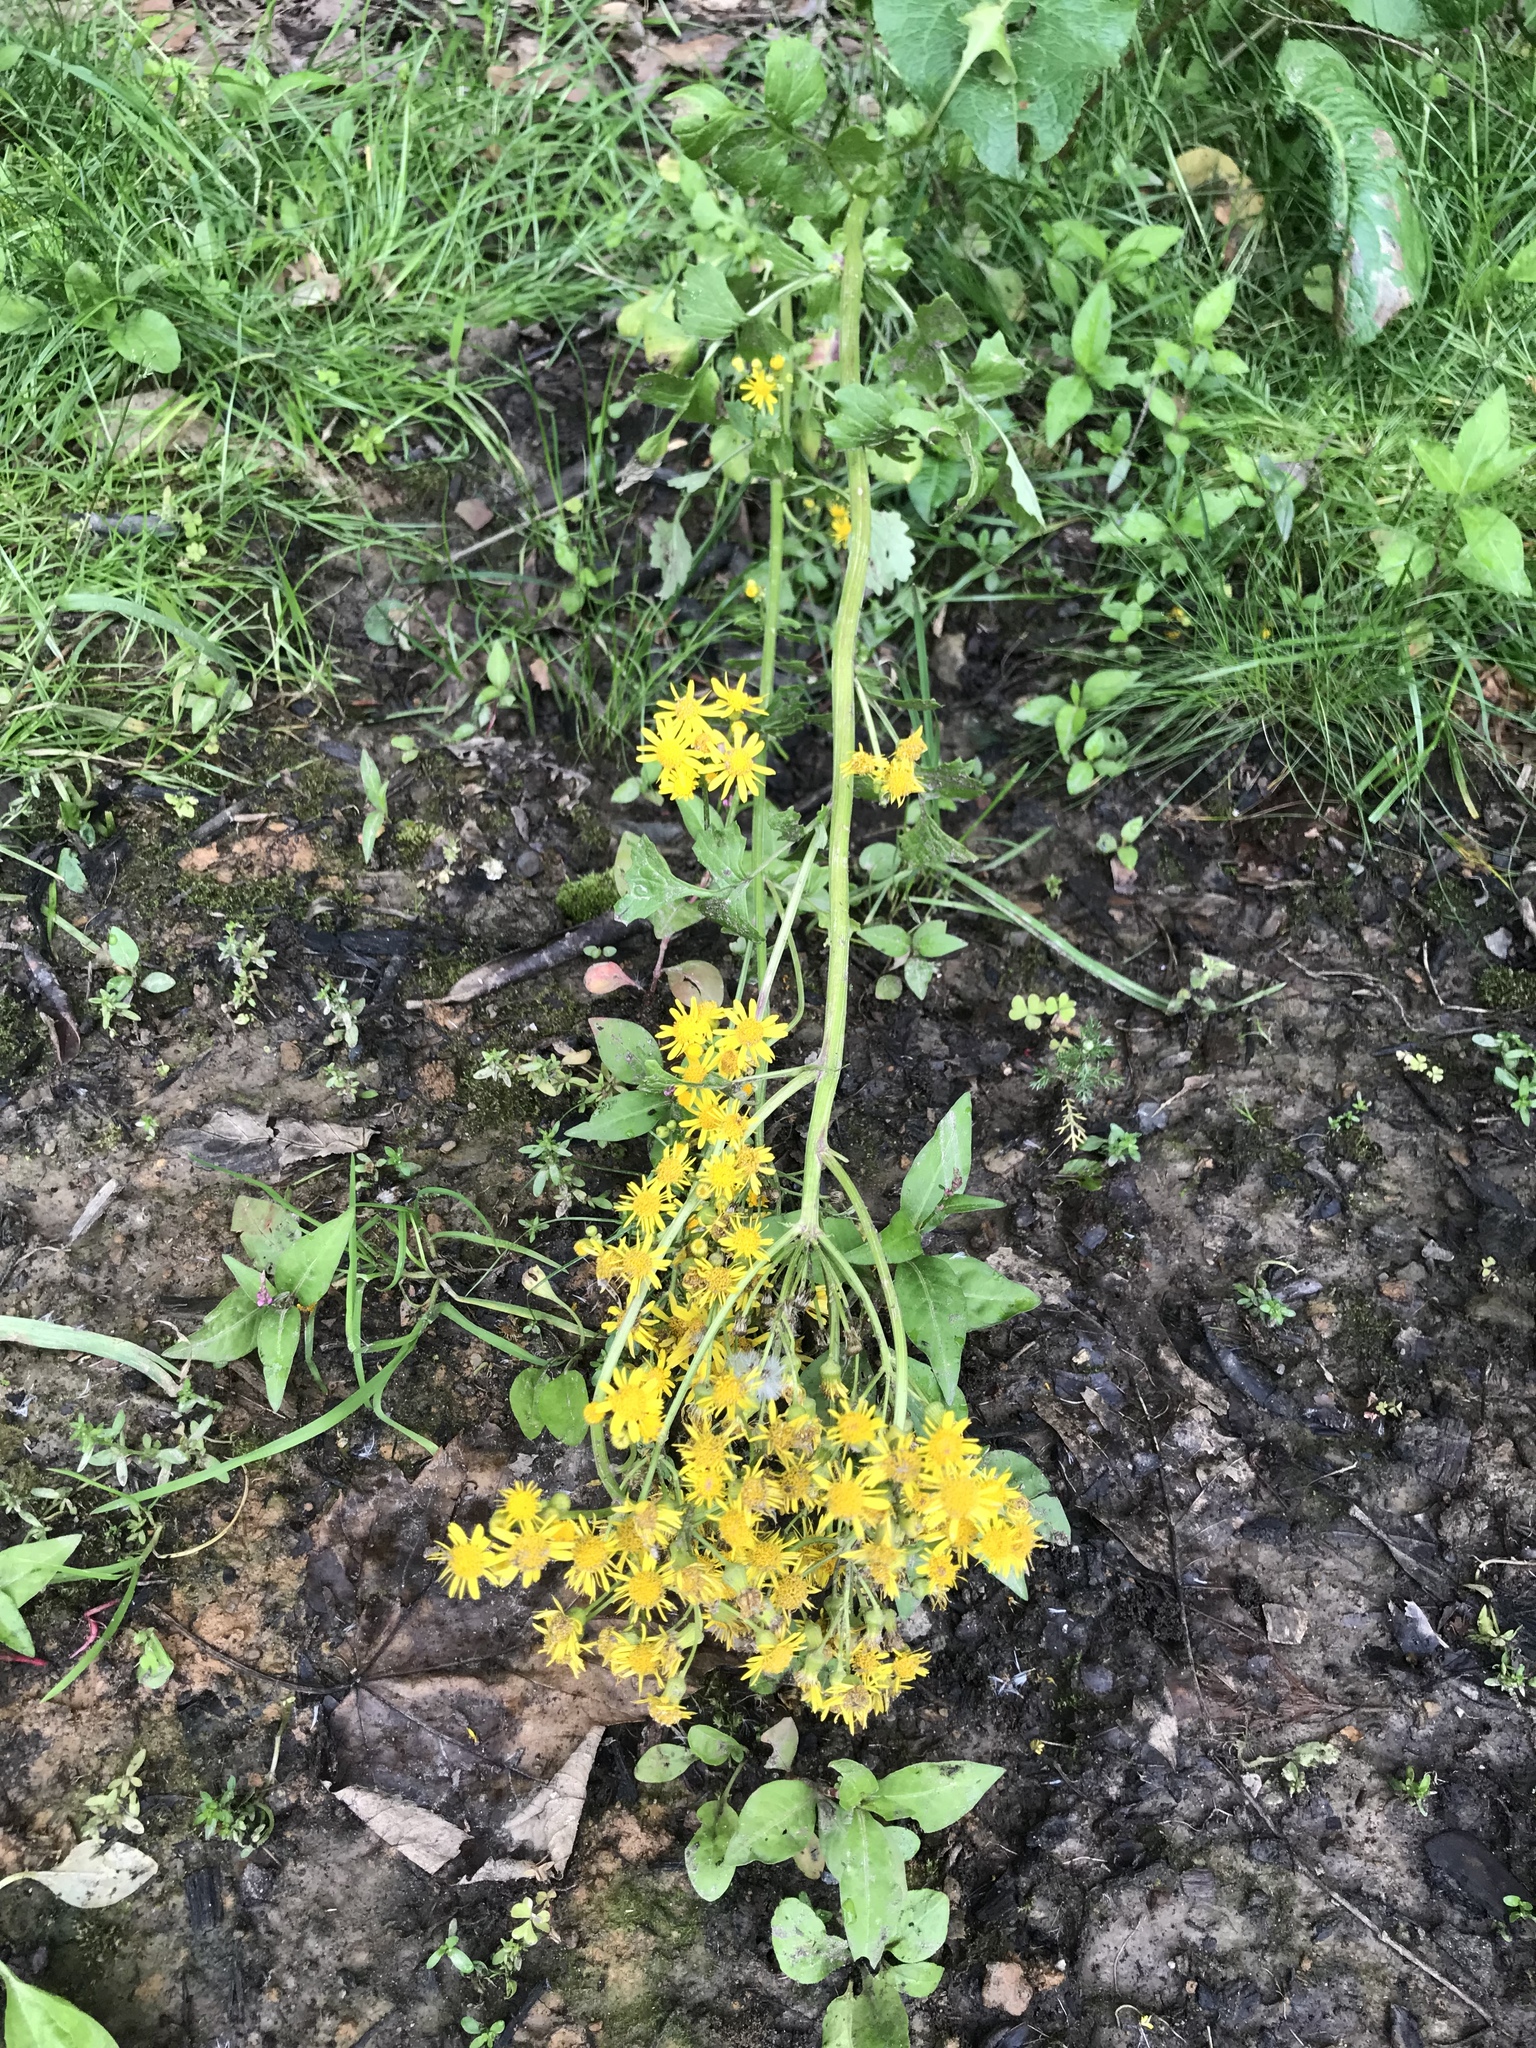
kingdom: Plantae
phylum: Tracheophyta
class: Magnoliopsida
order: Asterales
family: Asteraceae
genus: Packera
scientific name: Packera glabella
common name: Butterweed
